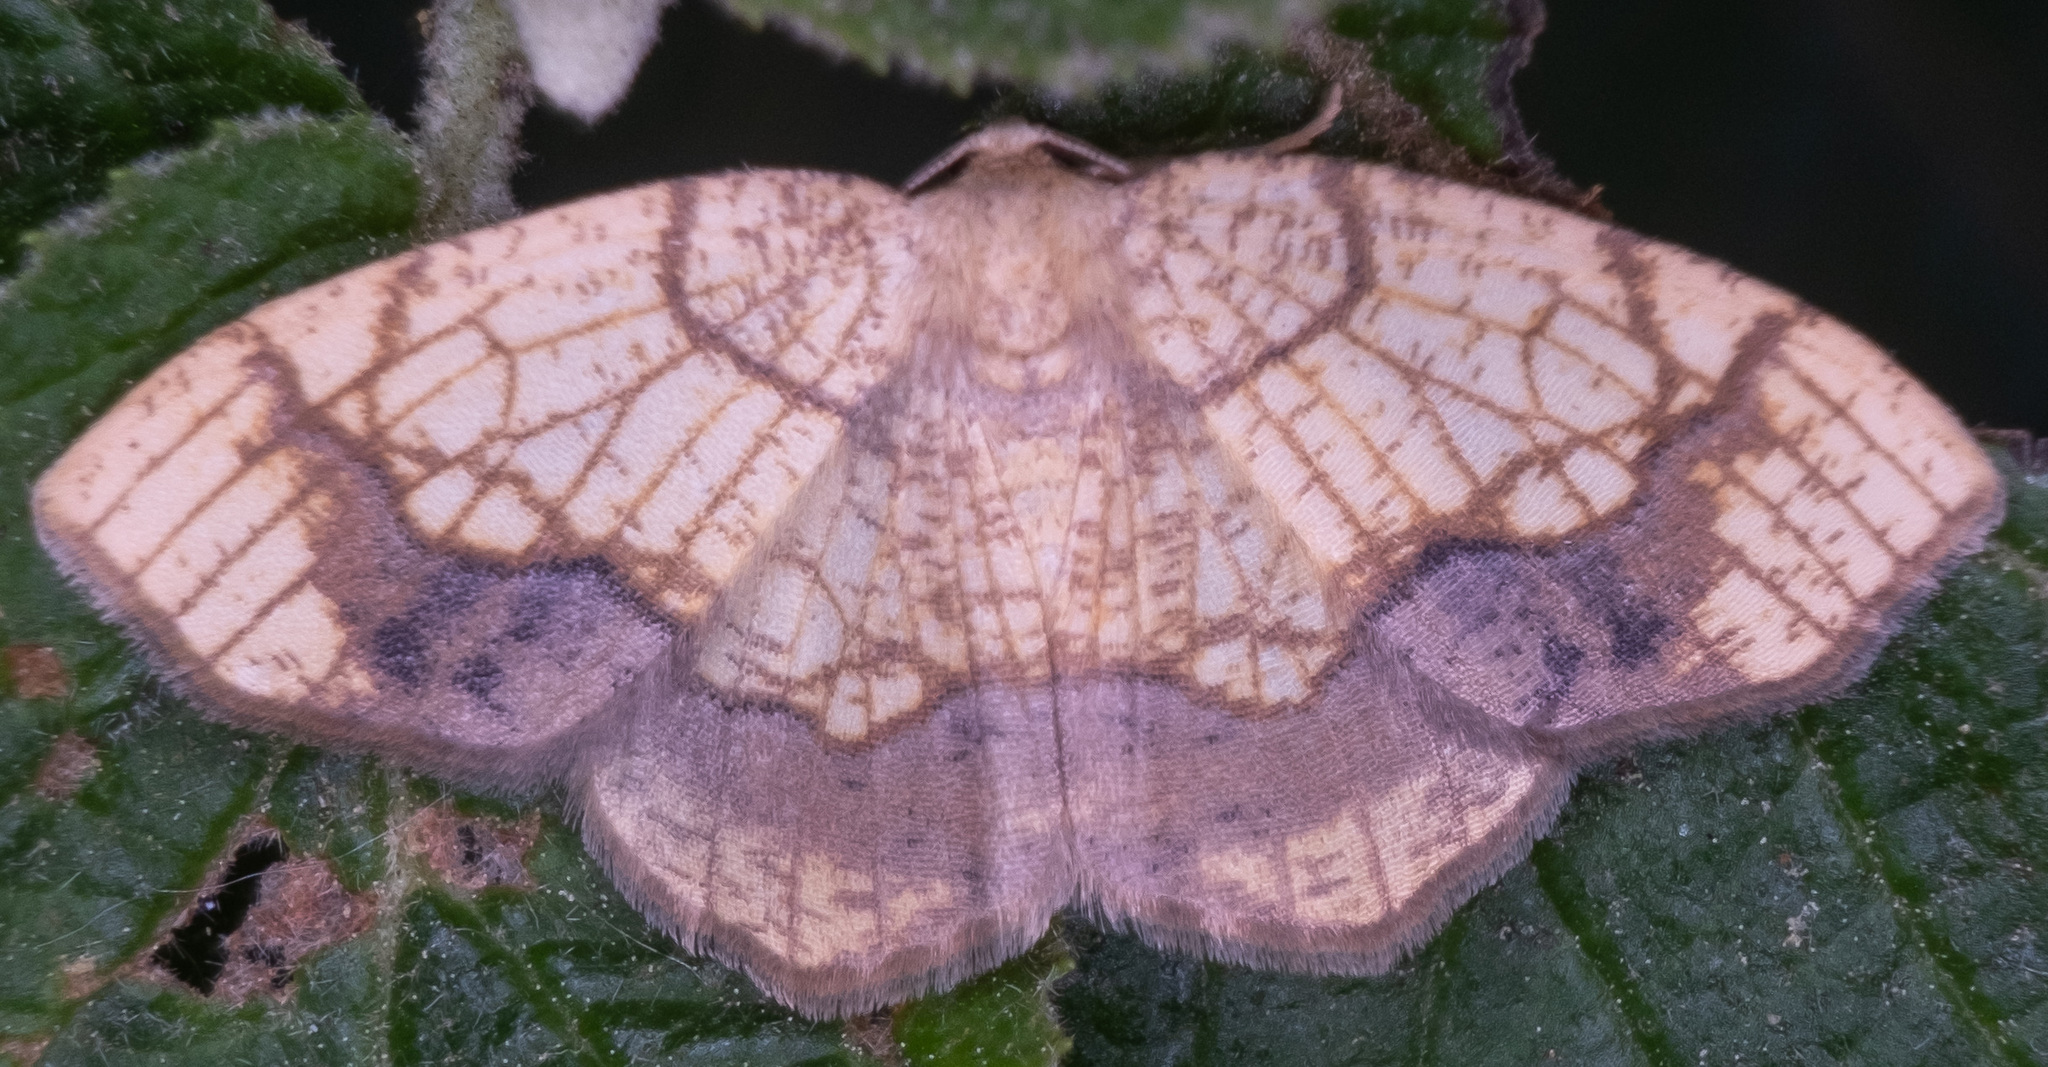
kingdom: Animalia
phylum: Arthropoda
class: Insecta
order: Lepidoptera
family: Geometridae
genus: Nematocampa
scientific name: Nematocampa resistaria
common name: Horned spanworm moth
